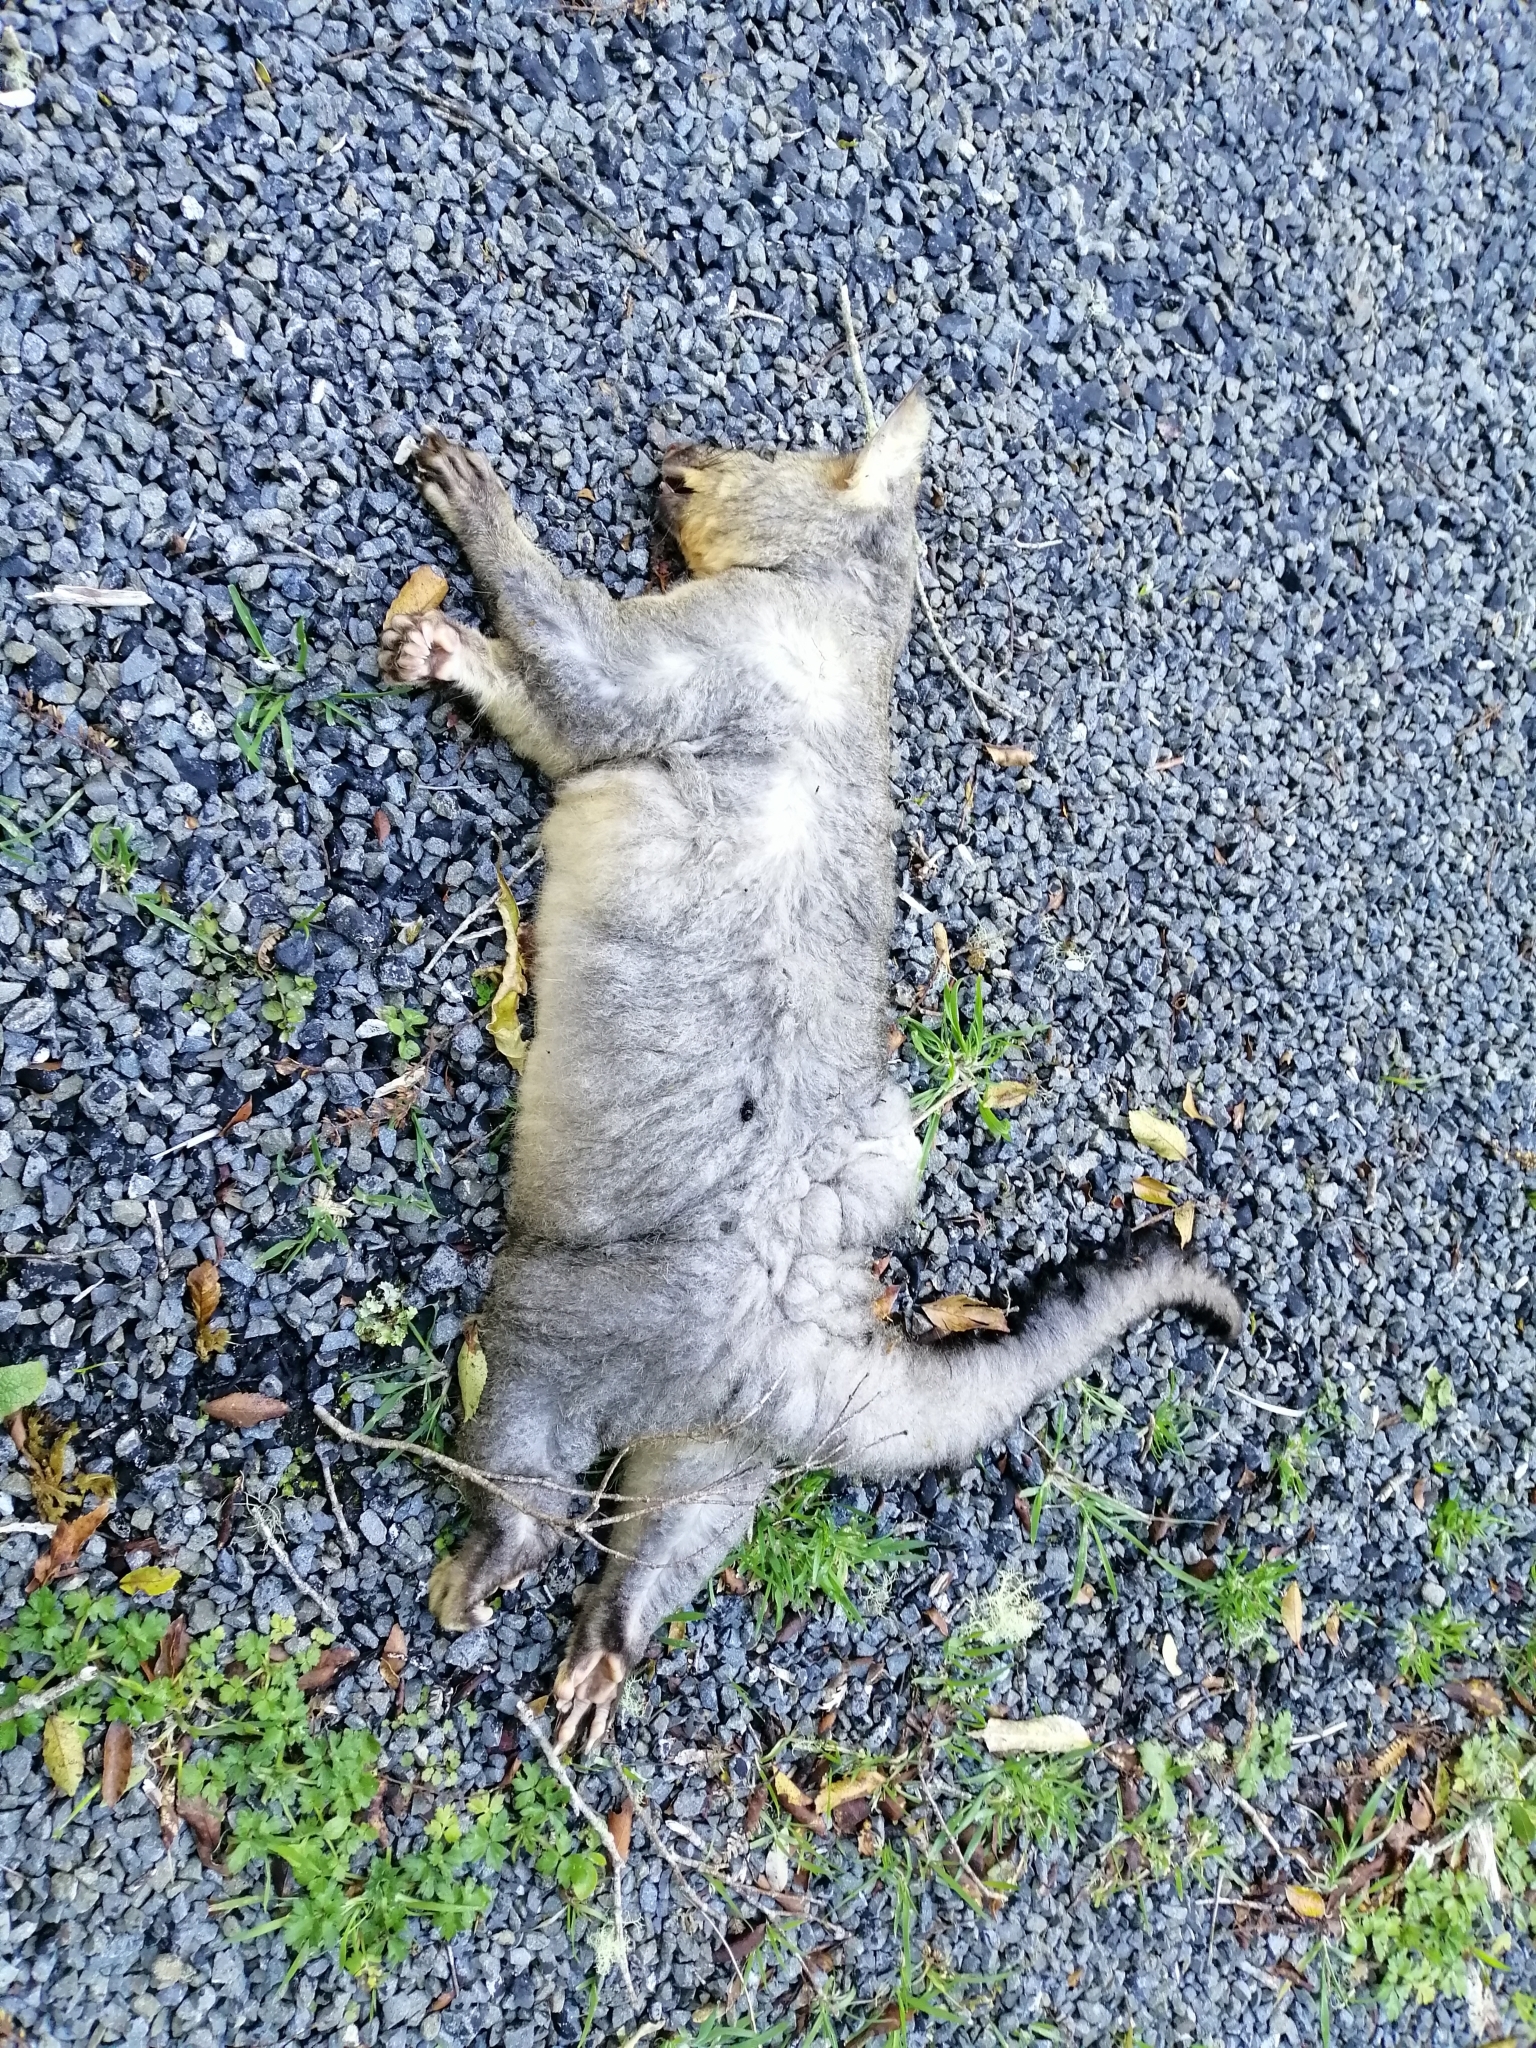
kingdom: Animalia
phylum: Chordata
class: Mammalia
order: Diprotodontia
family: Phalangeridae
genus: Trichosurus
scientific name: Trichosurus vulpecula
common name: Common brushtail
